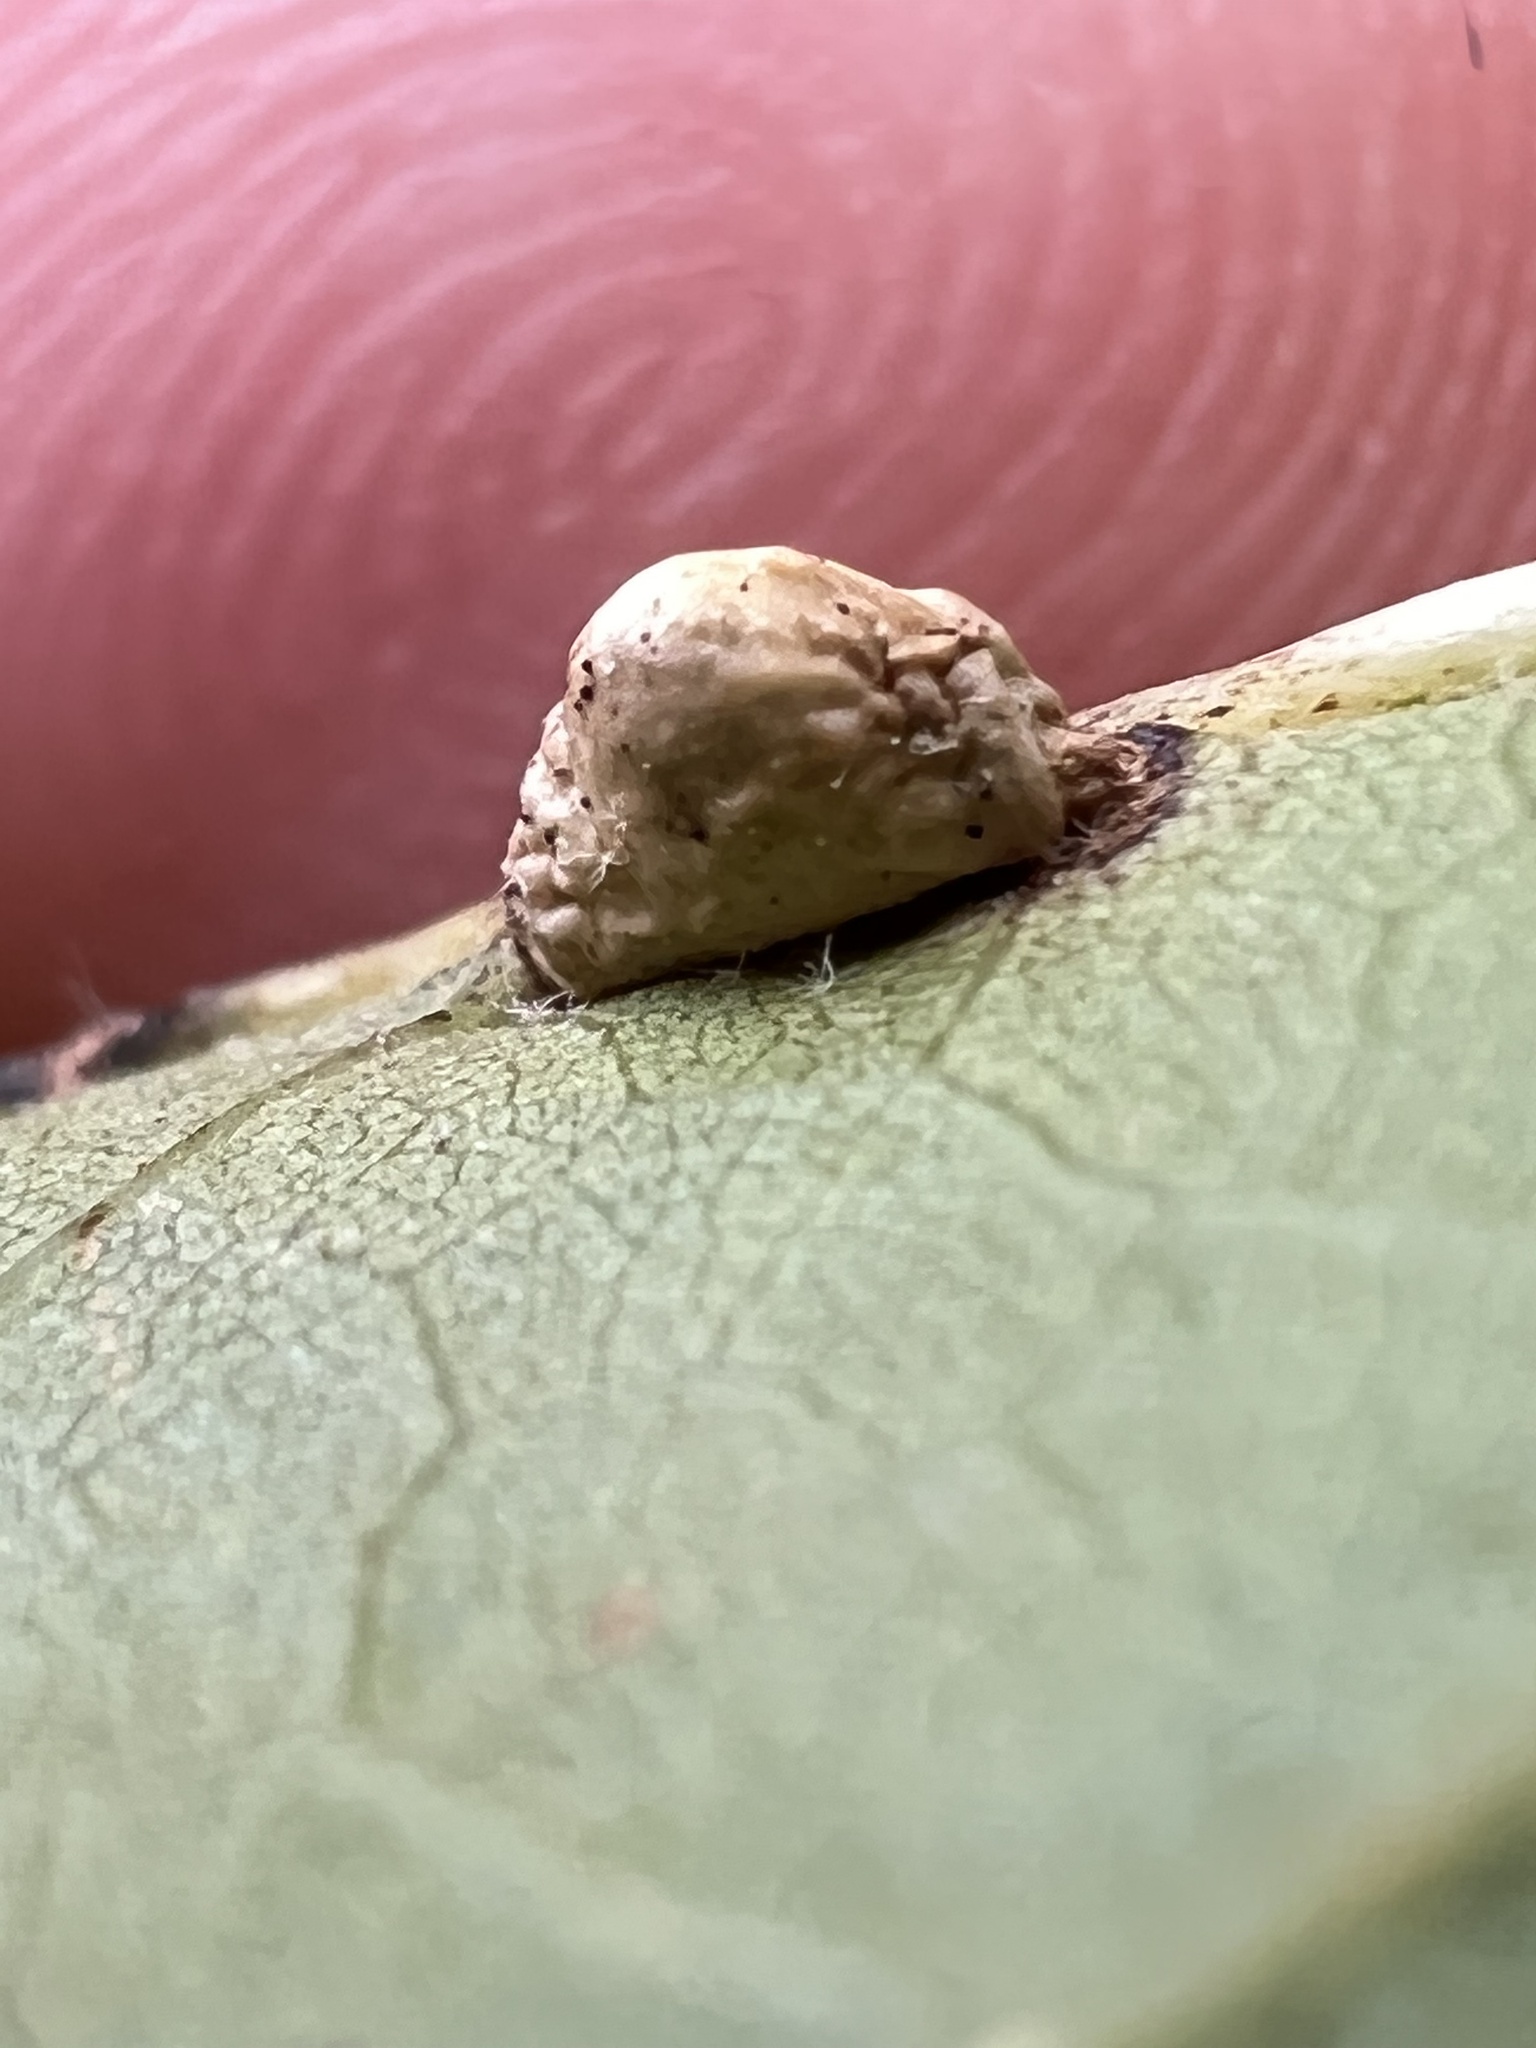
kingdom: Animalia
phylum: Arthropoda
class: Insecta
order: Diptera
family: Cecidomyiidae
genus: Macrodiplosis
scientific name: Macrodiplosis majalis
